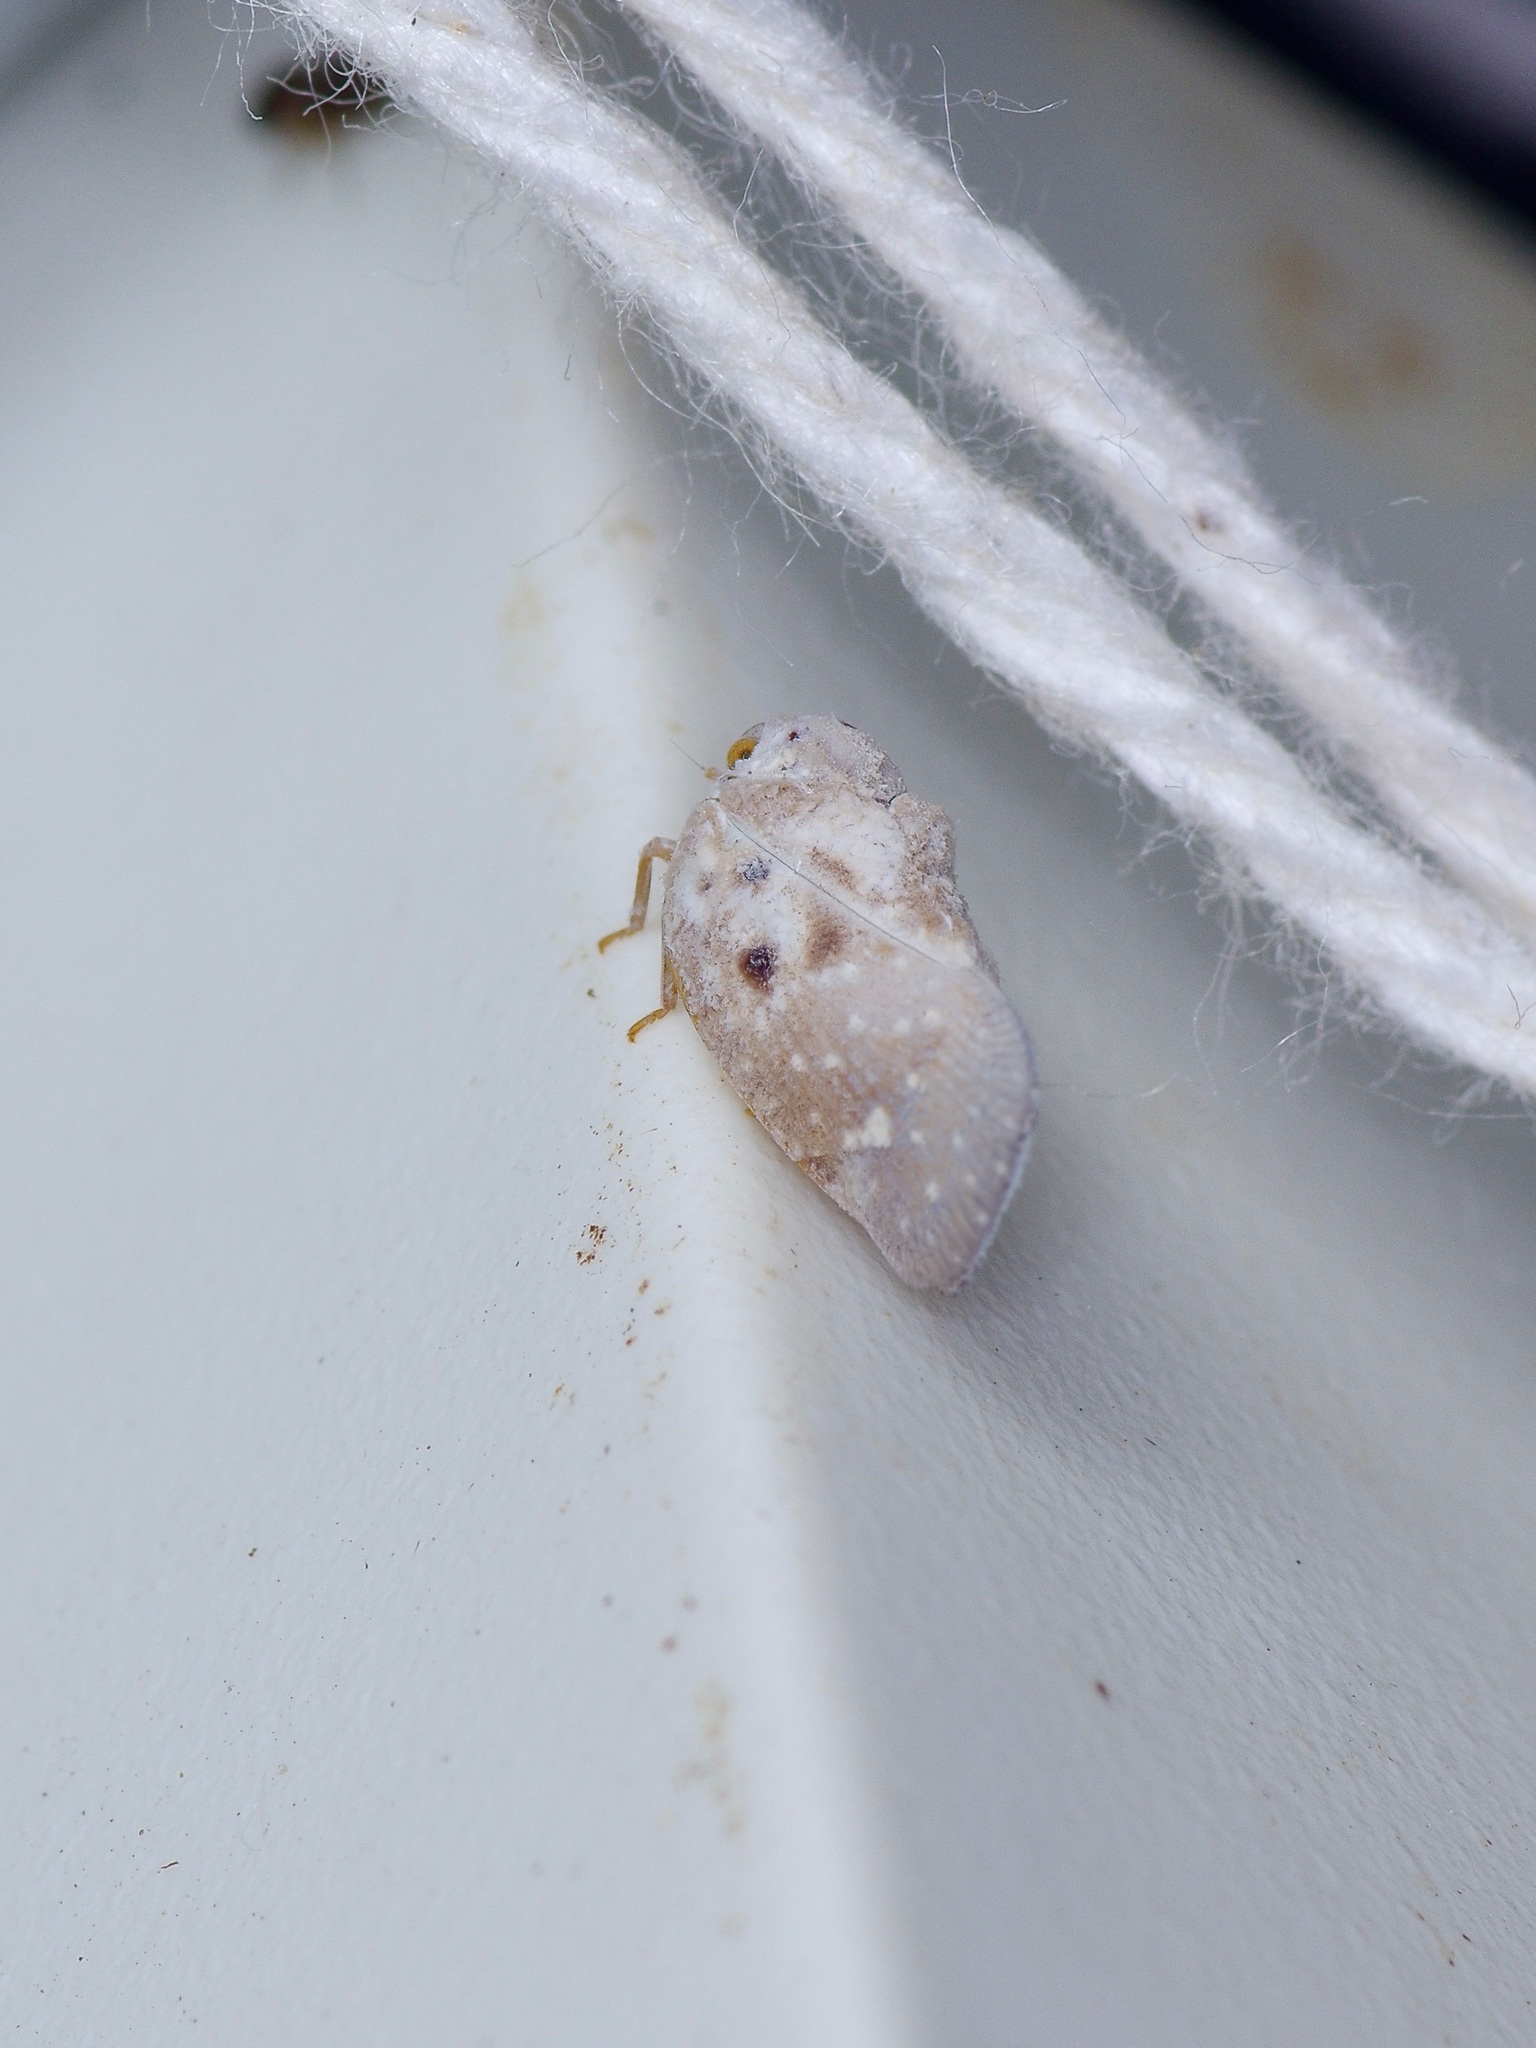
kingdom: Animalia
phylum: Arthropoda
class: Insecta
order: Hemiptera
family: Flatidae
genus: Metcalfa
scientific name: Metcalfa pruinosa
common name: Citrus flatid planthopper
